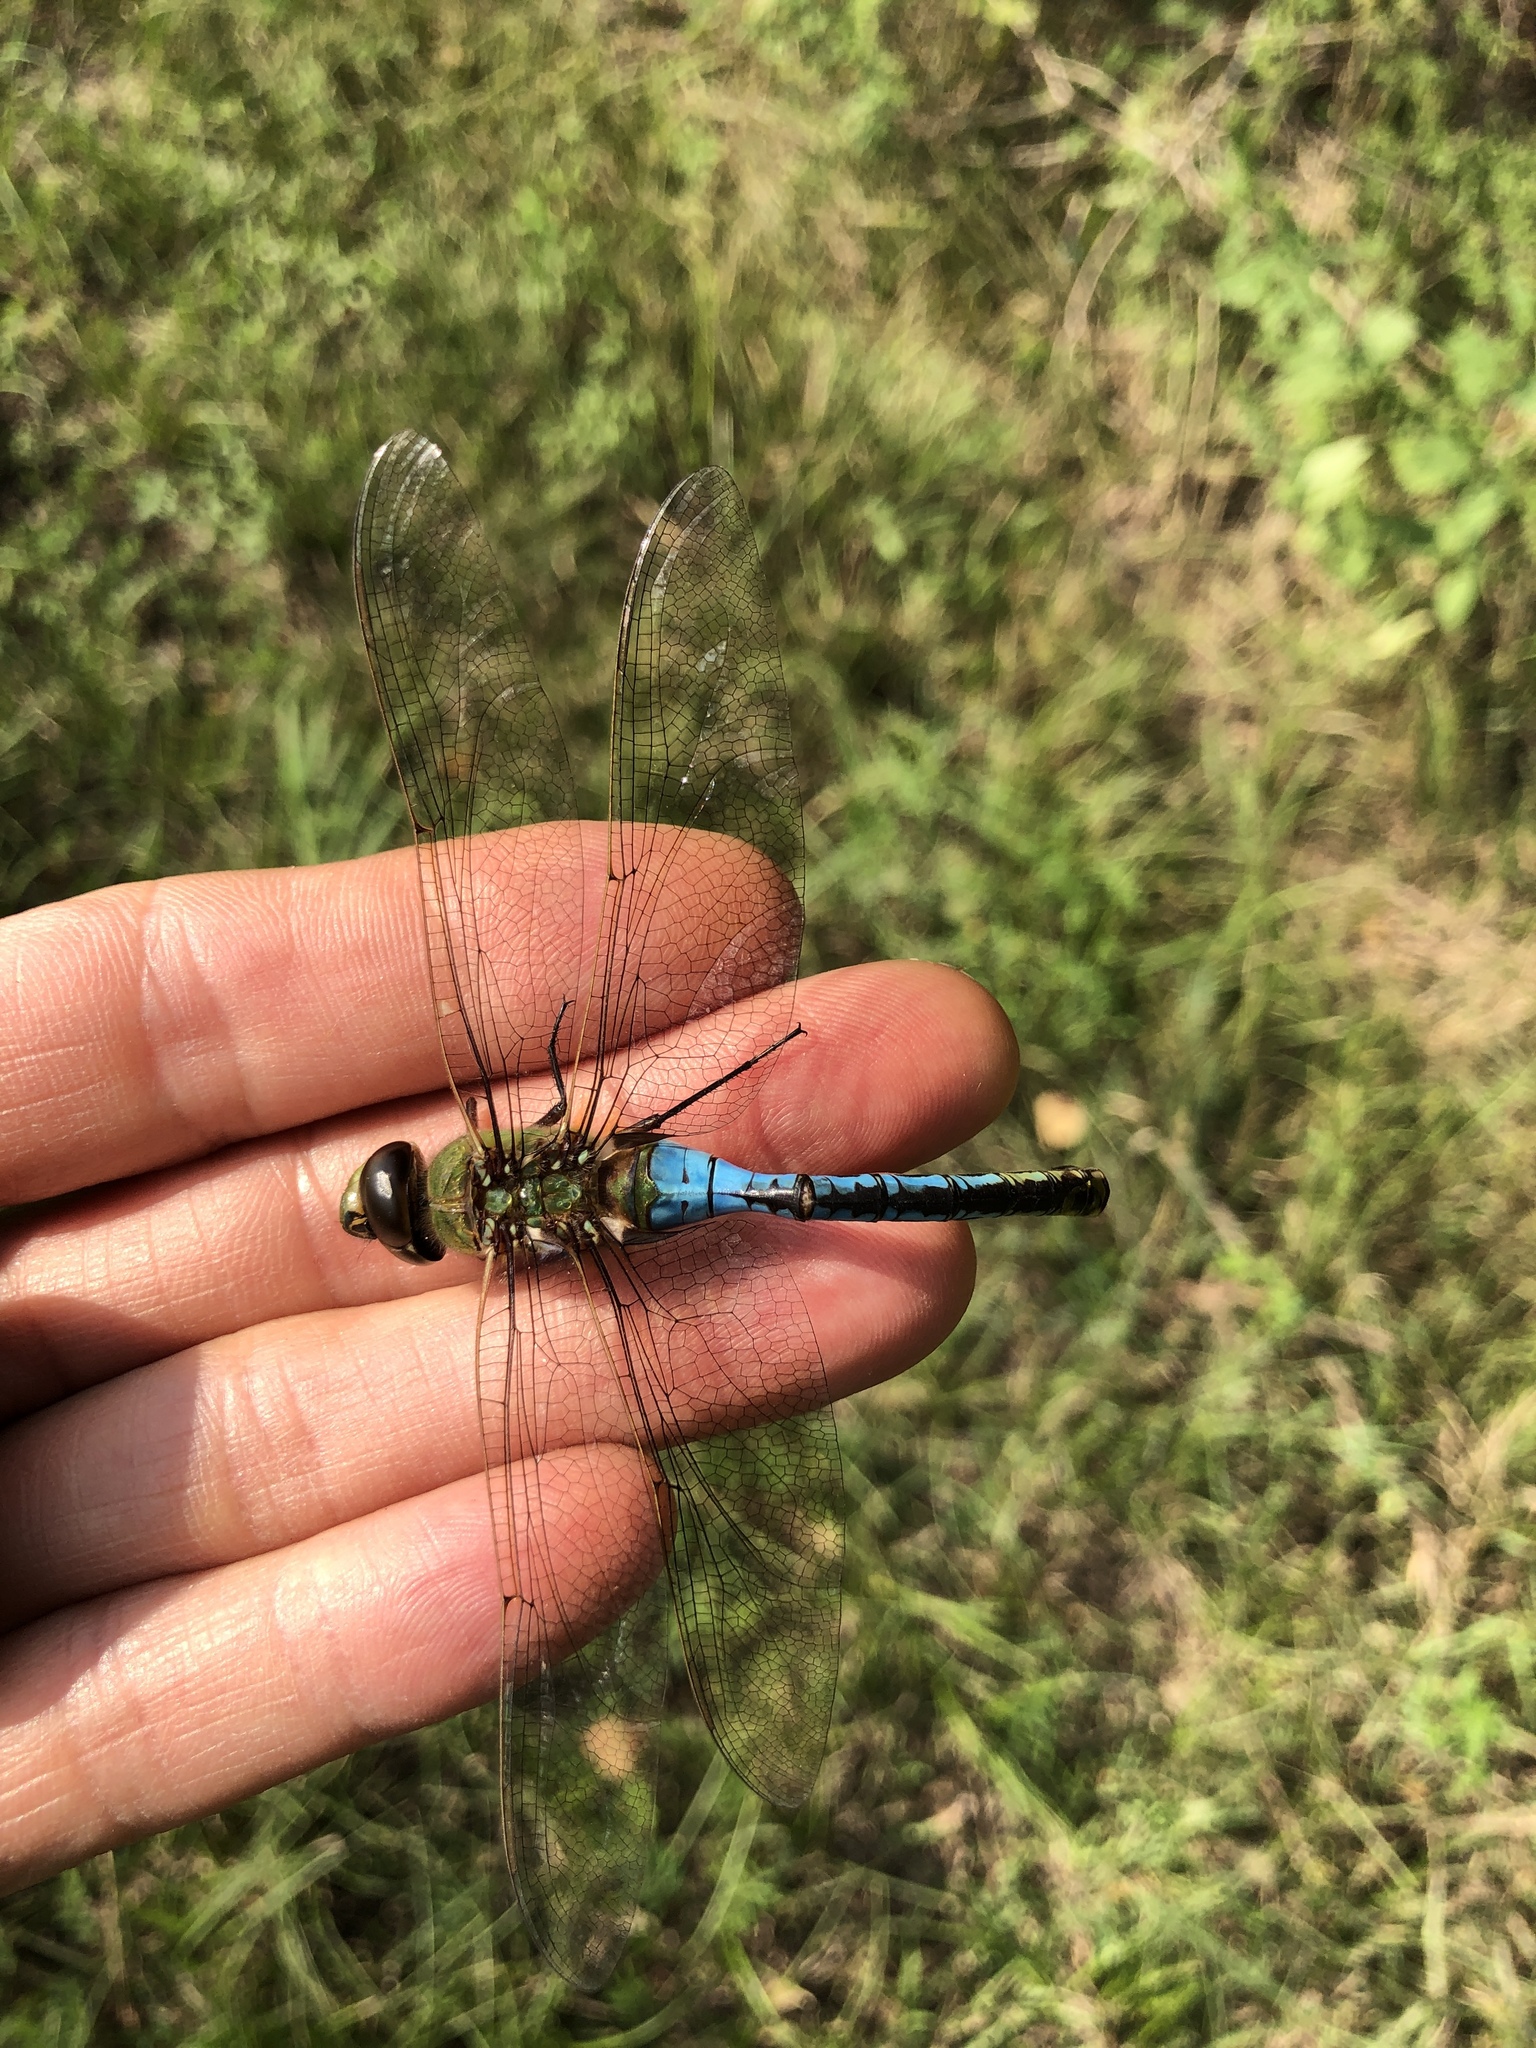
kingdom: Animalia
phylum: Arthropoda
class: Insecta
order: Odonata
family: Aeshnidae
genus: Anax
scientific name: Anax junius
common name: Common green darner
